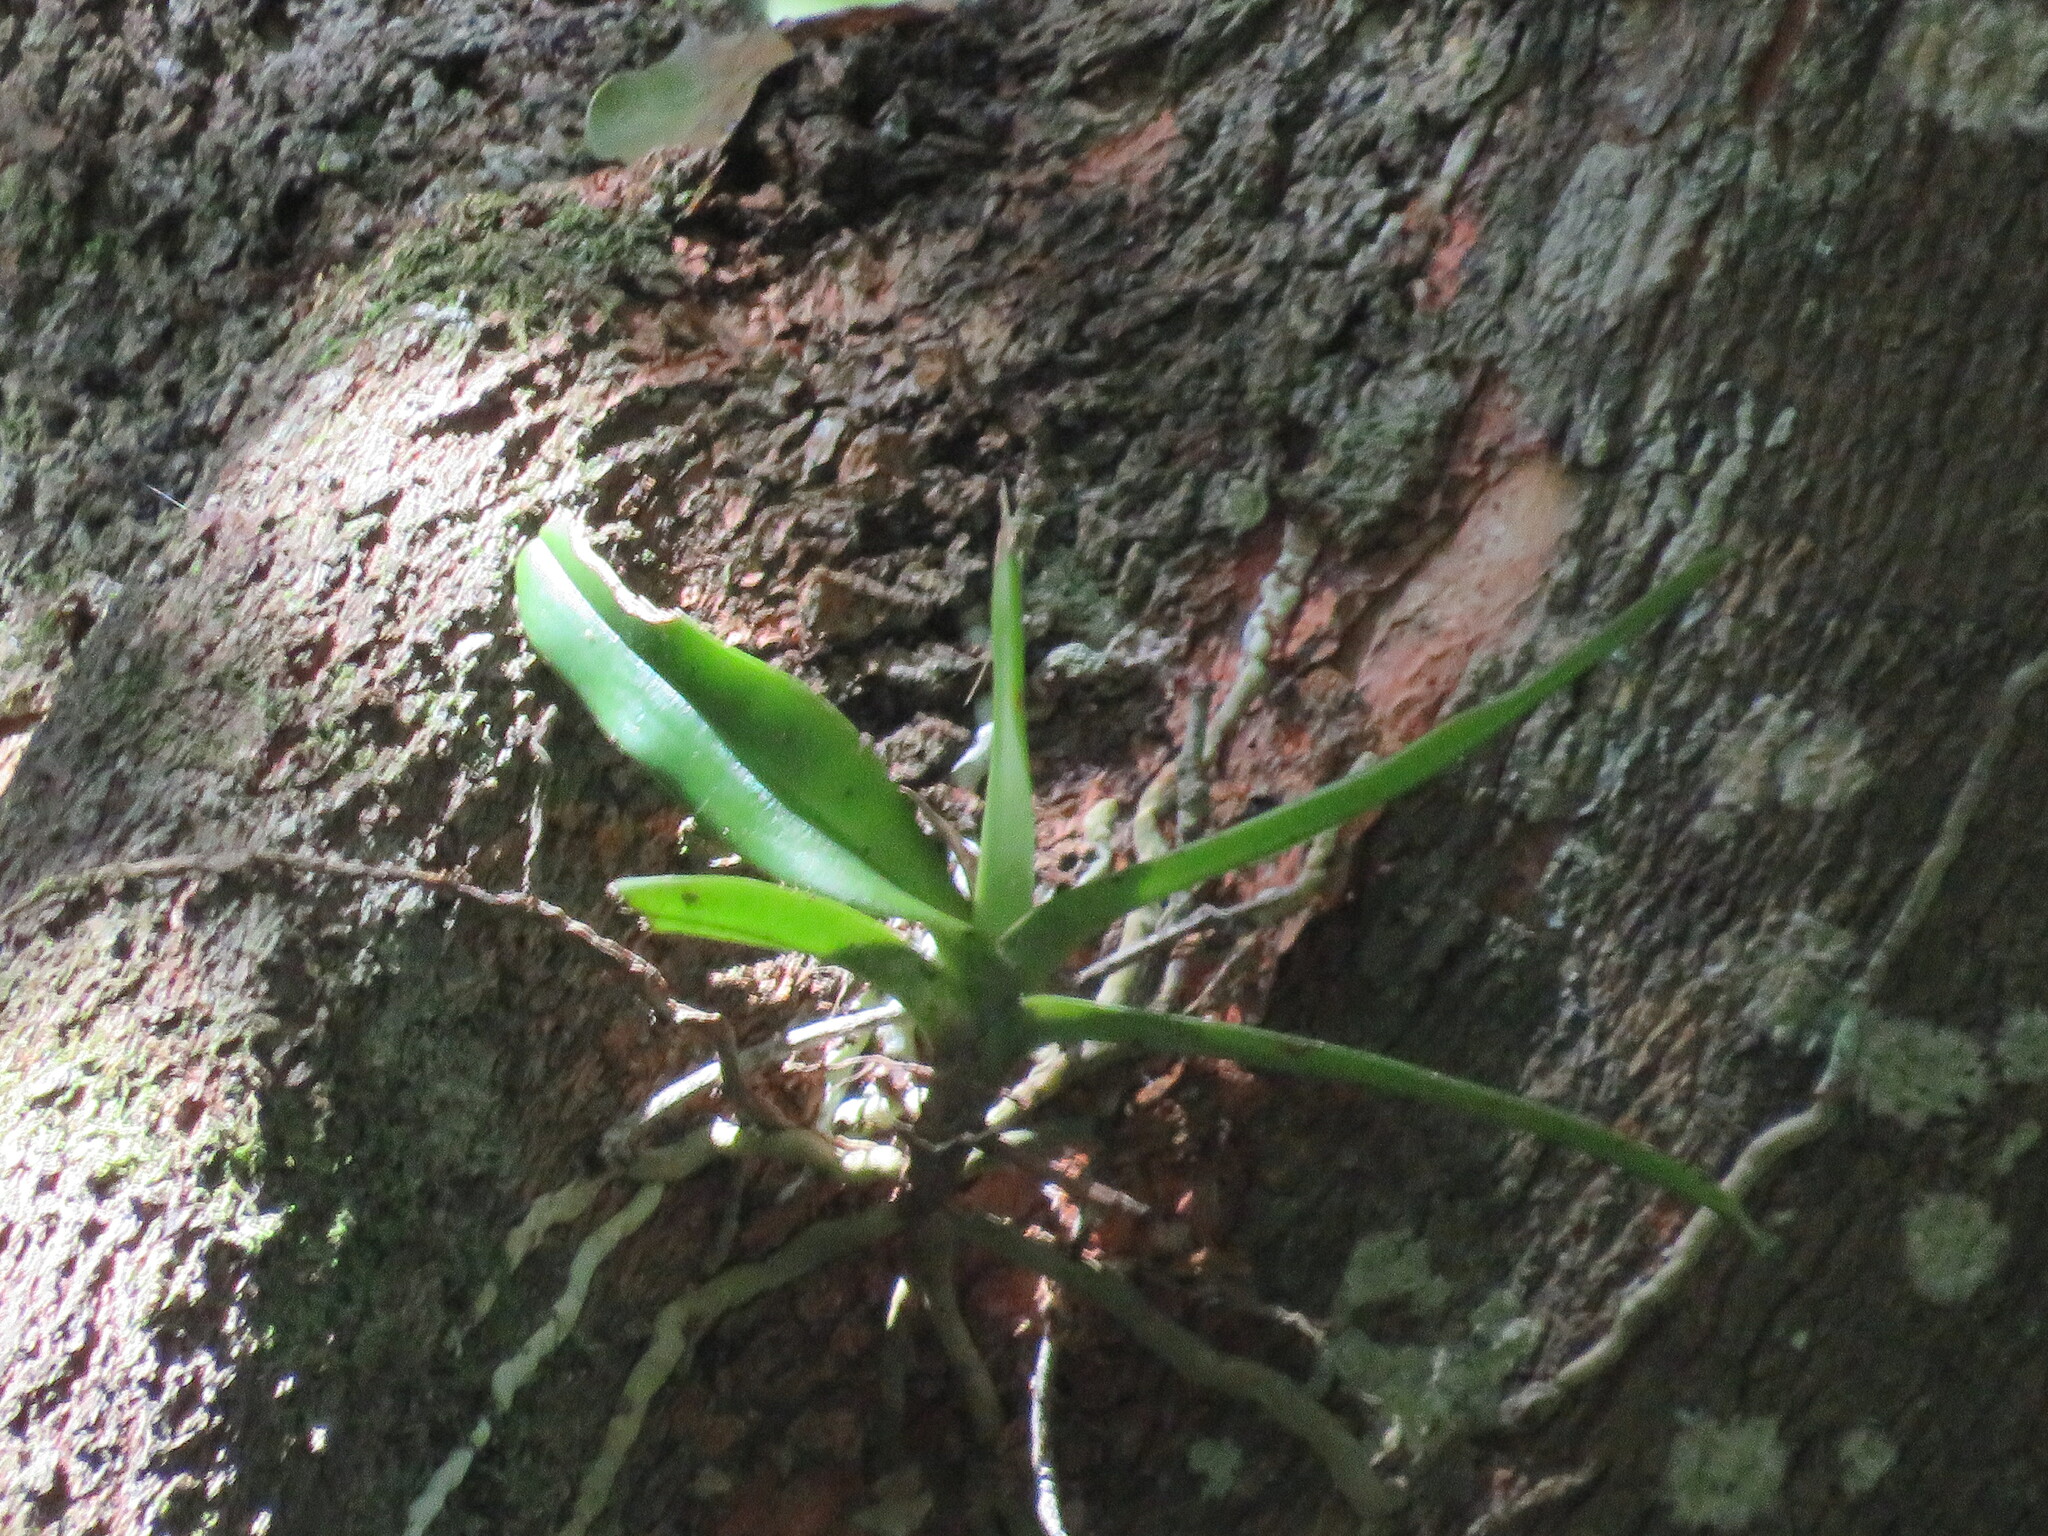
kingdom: Plantae
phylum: Tracheophyta
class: Liliopsida
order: Asparagales
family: Orchidaceae
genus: Cyrtorchis
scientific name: Cyrtorchis arcuata
